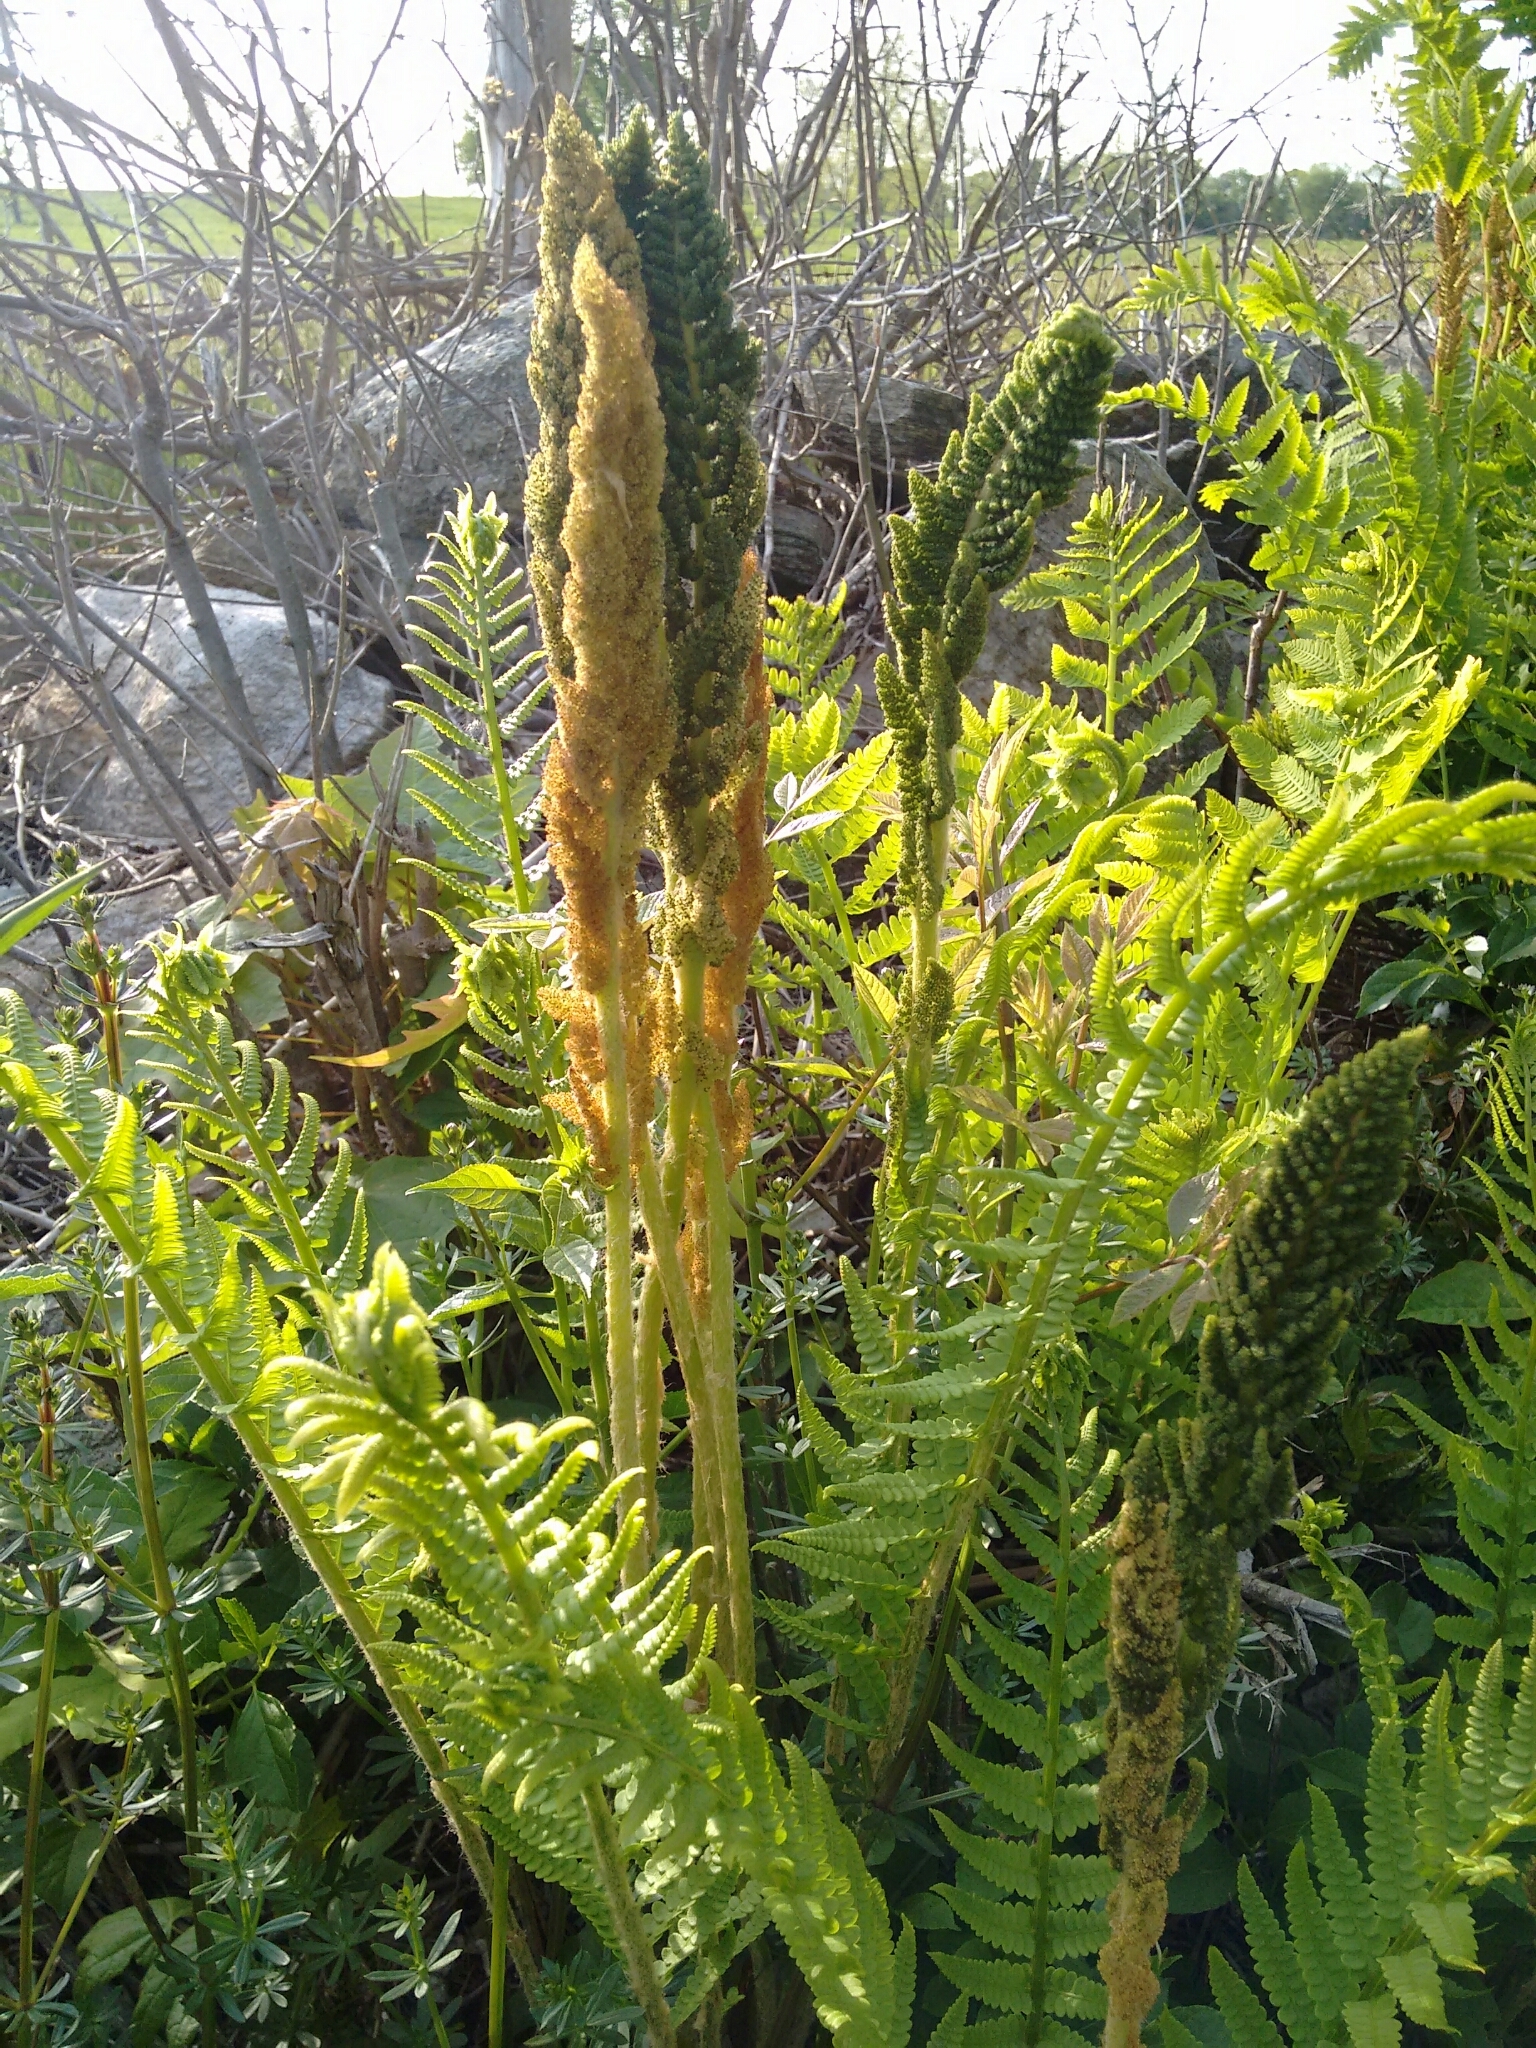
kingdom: Plantae
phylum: Tracheophyta
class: Polypodiopsida
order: Osmundales
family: Osmundaceae
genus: Osmundastrum
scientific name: Osmundastrum cinnamomeum
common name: Cinnamon fern
